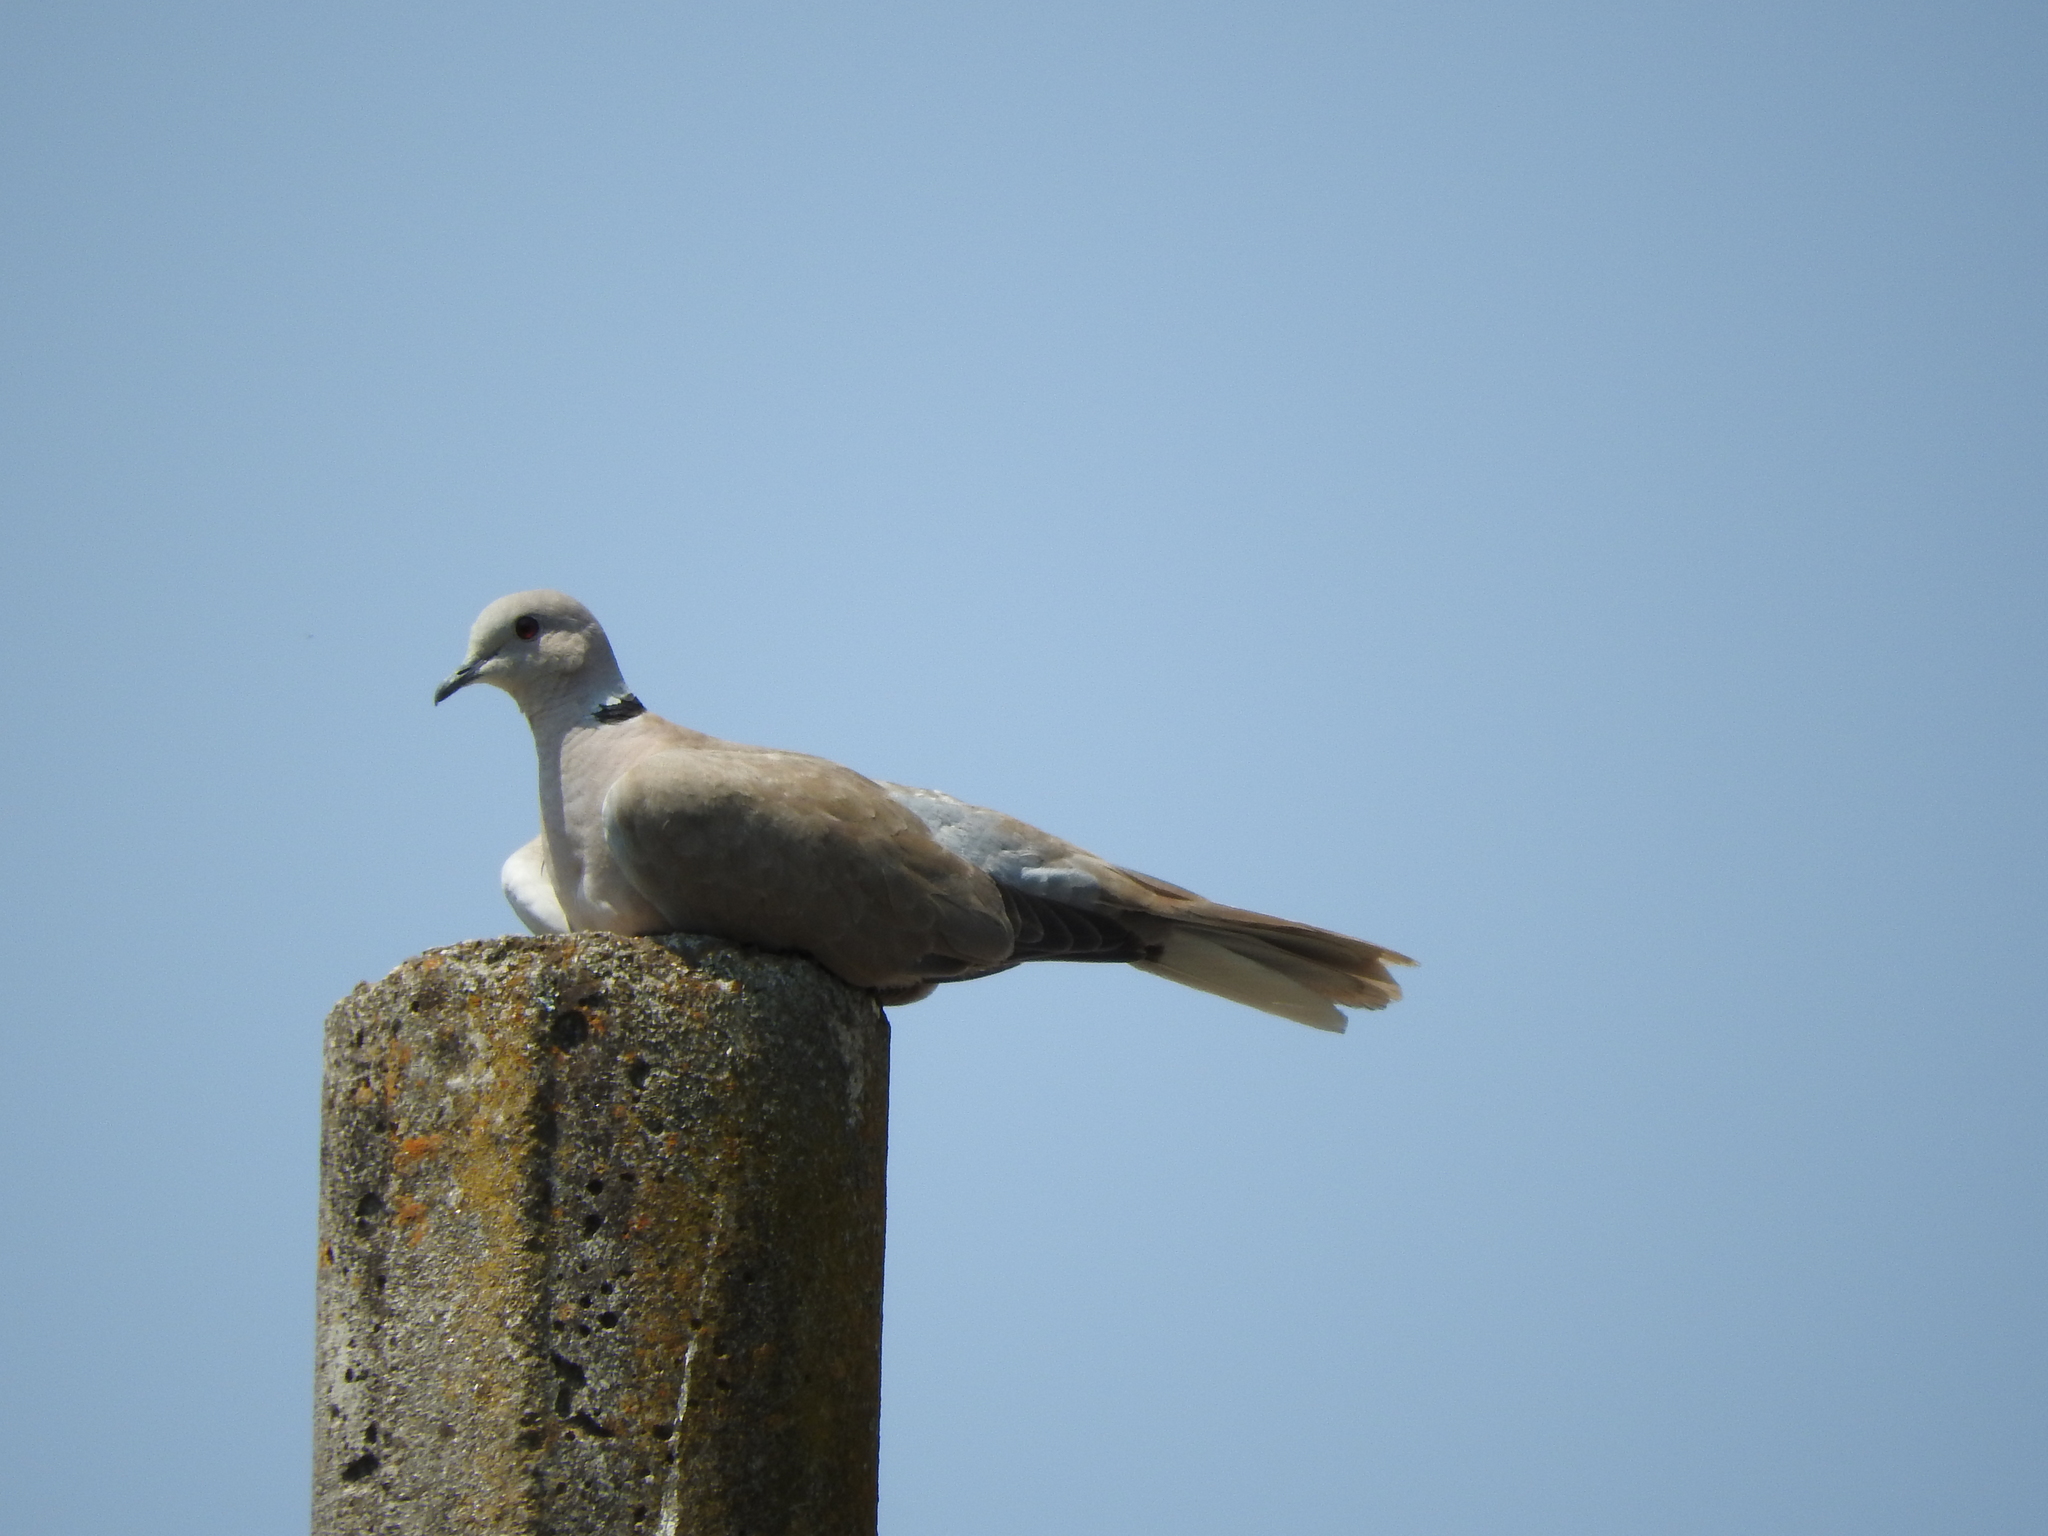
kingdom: Animalia
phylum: Chordata
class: Aves
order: Columbiformes
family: Columbidae
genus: Streptopelia
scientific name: Streptopelia decaocto
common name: Eurasian collared dove
